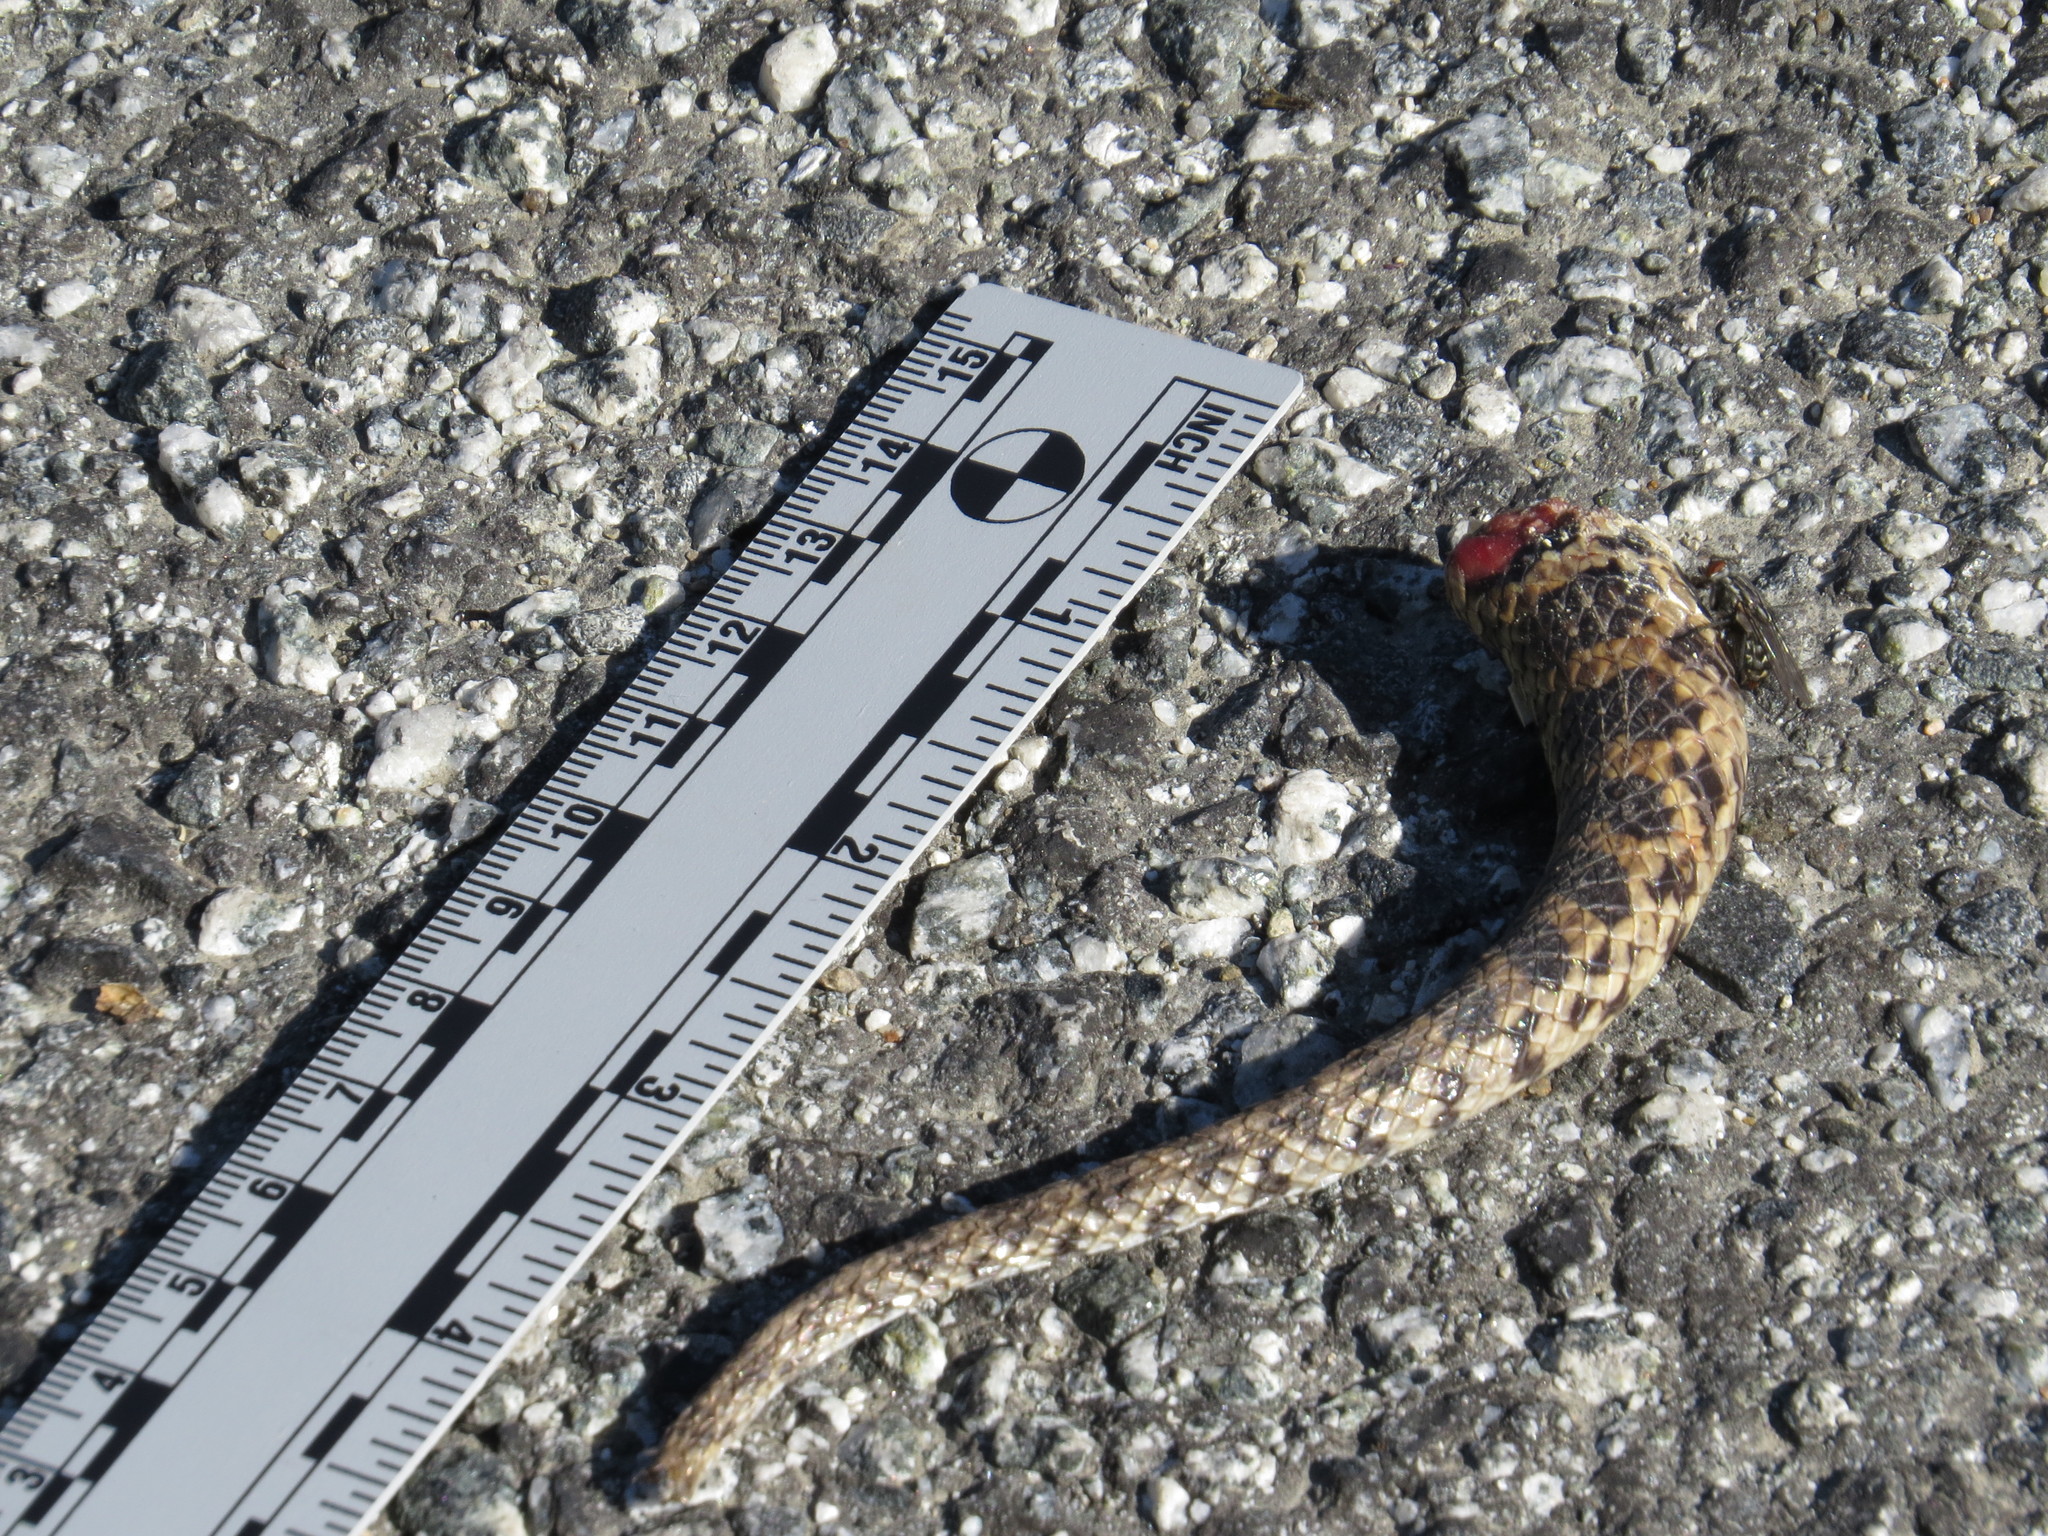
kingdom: Animalia
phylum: Chordata
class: Squamata
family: Colubridae
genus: Pituophis
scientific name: Pituophis catenifer
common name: Gopher snake
